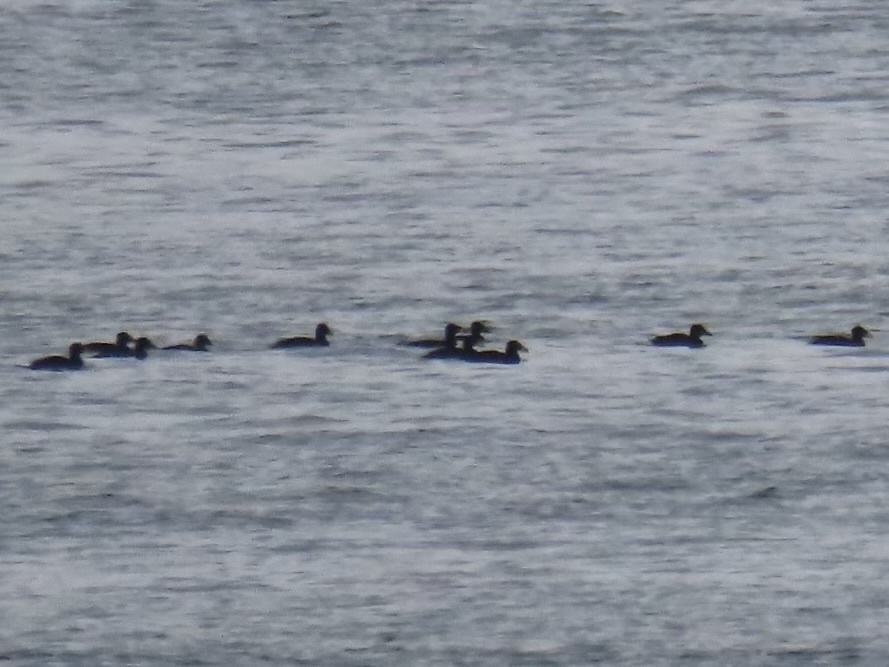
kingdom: Animalia
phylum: Chordata
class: Aves
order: Anseriformes
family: Anatidae
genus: Melanitta
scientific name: Melanitta perspicillata
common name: Surf scoter
